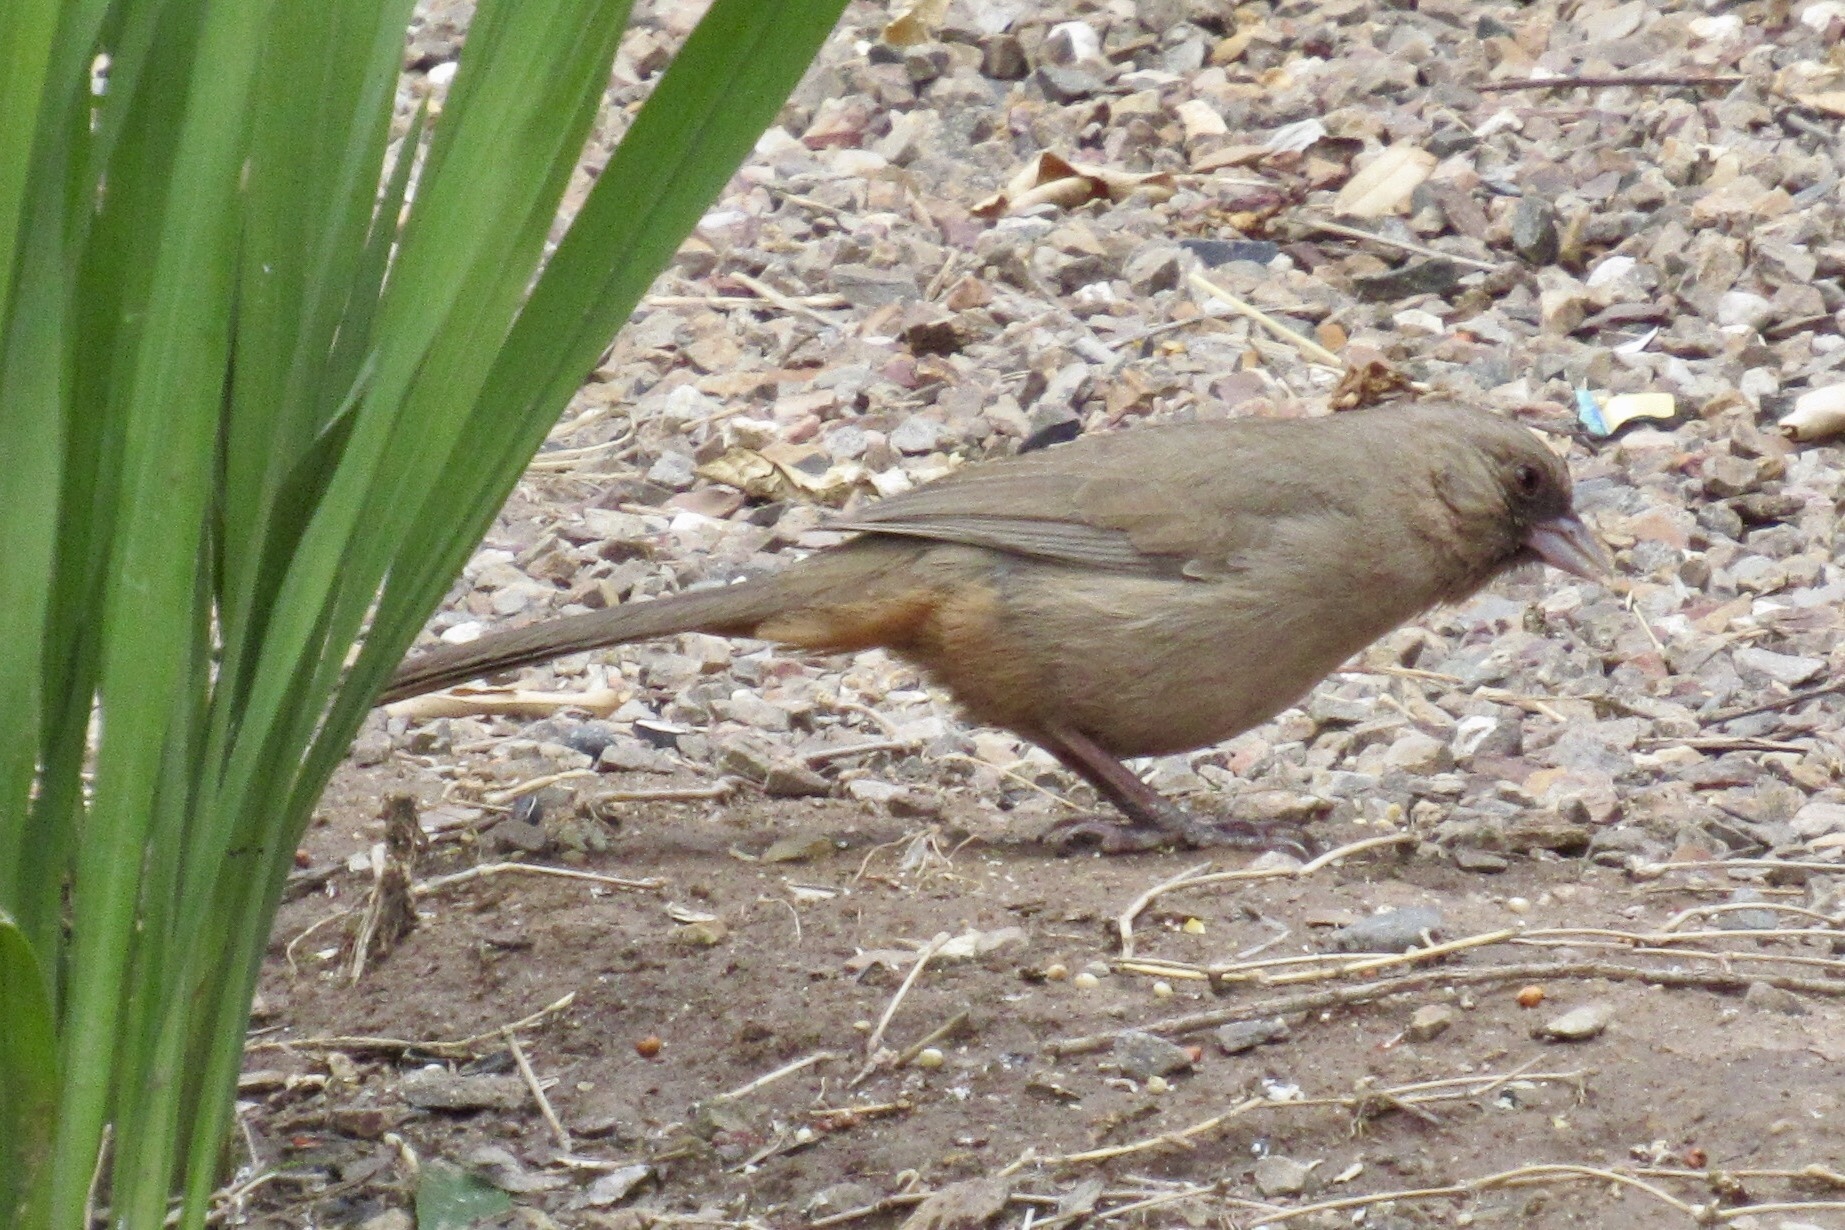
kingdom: Animalia
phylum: Chordata
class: Aves
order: Passeriformes
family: Passerellidae
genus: Melozone
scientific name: Melozone aberti
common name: Abert's towhee
